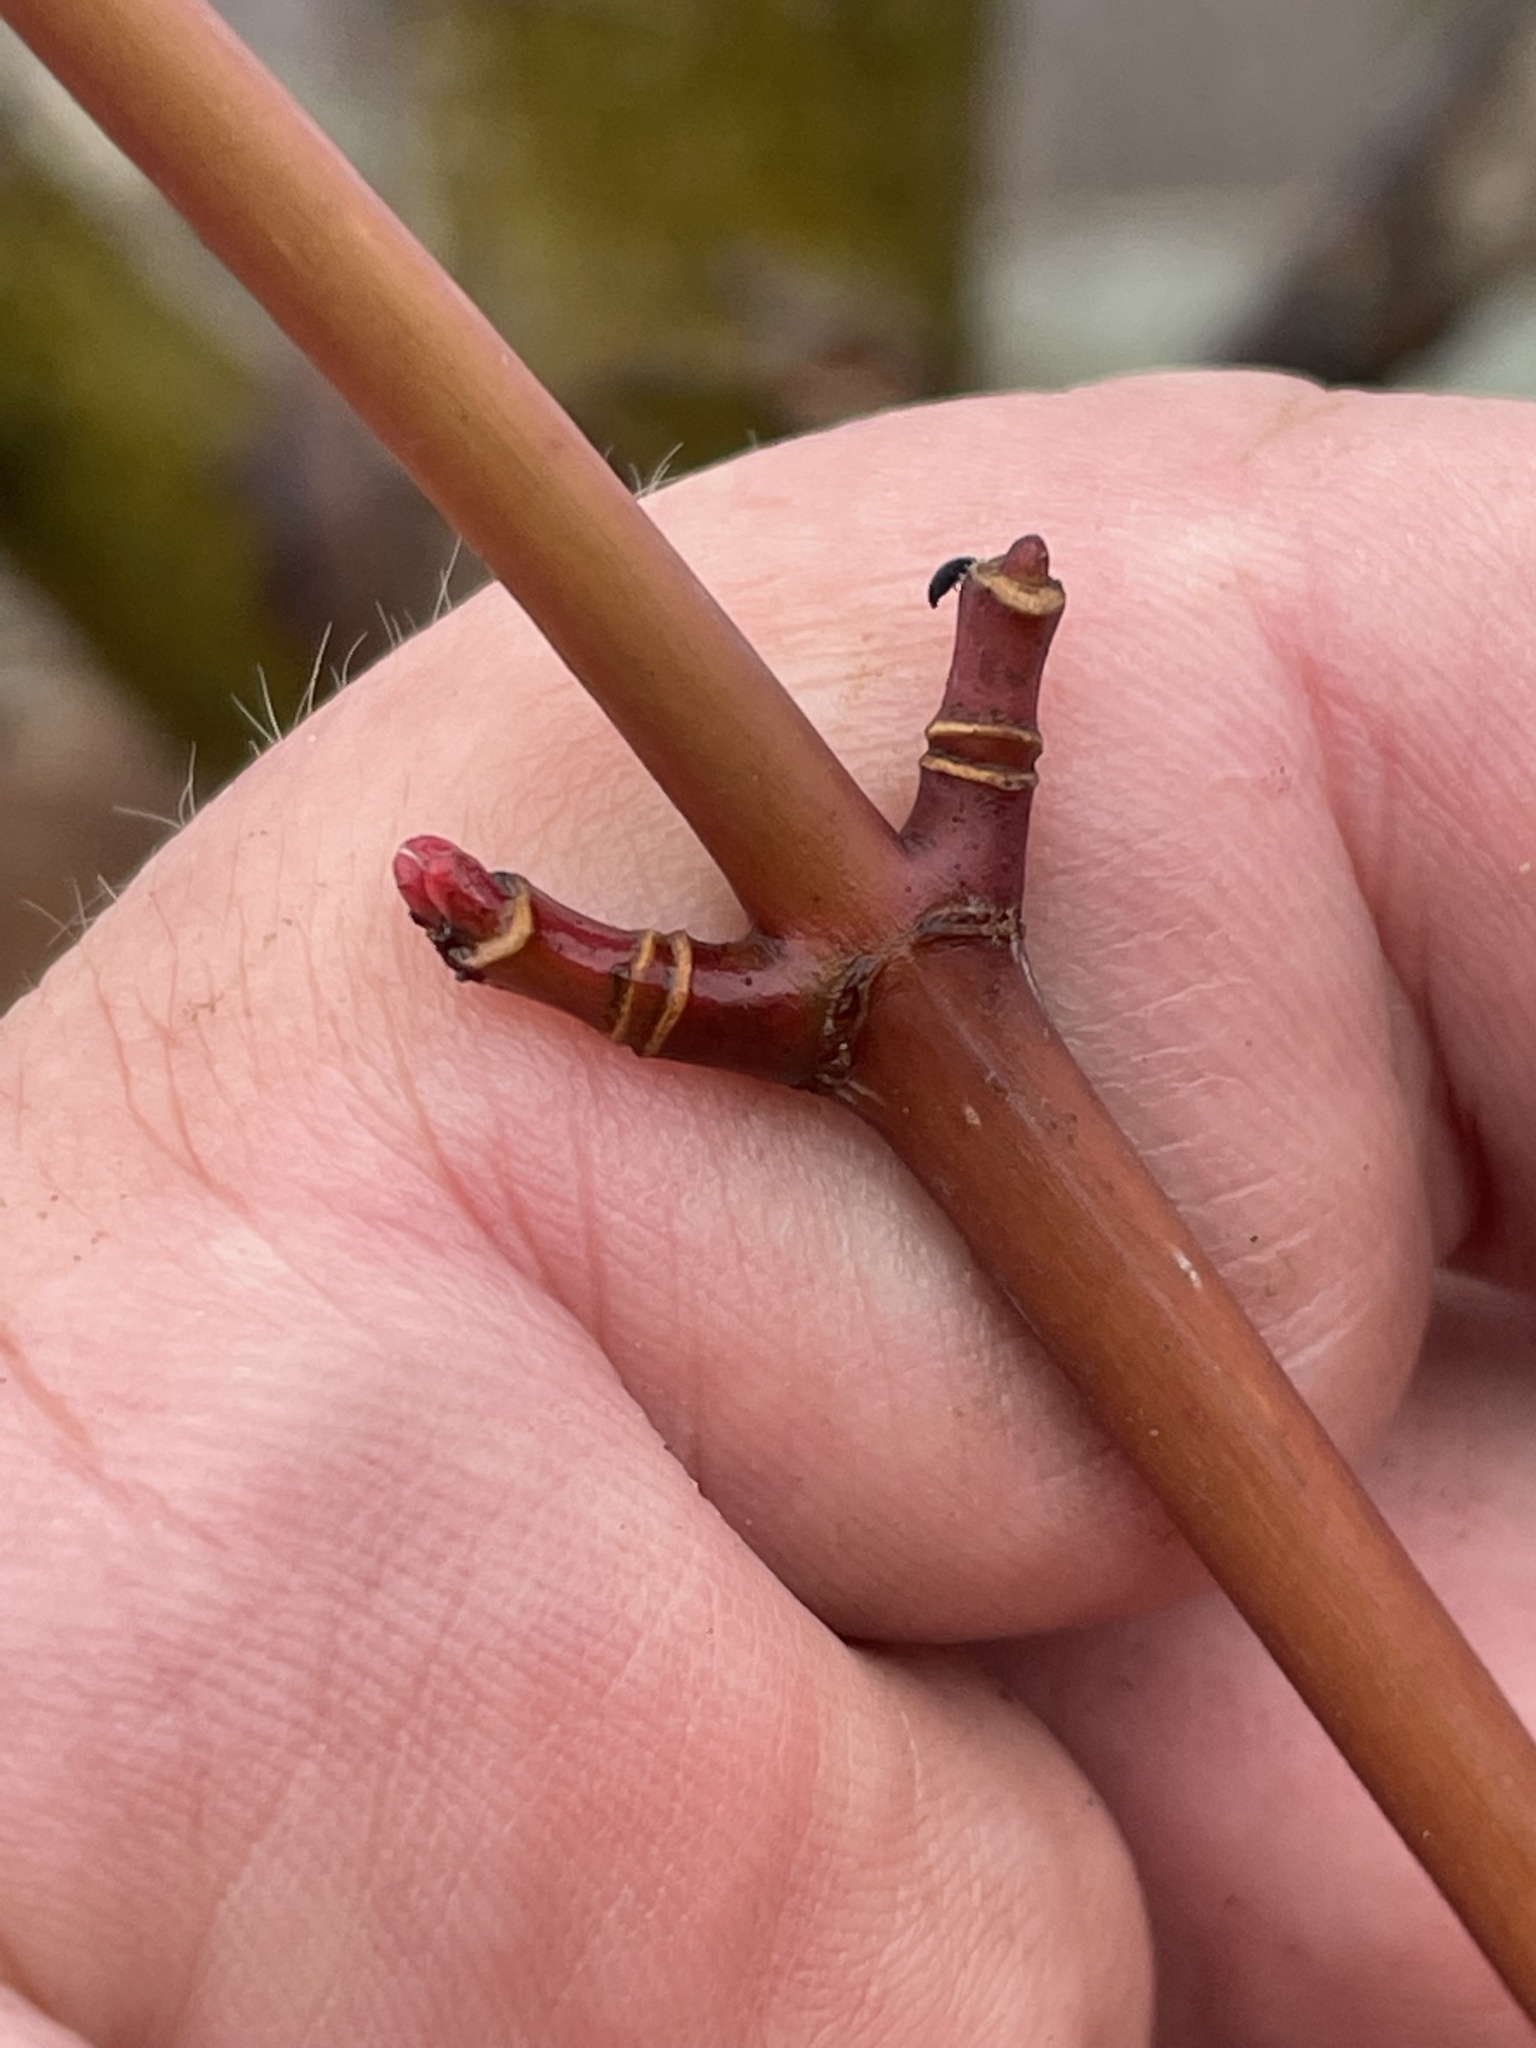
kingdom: Plantae
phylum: Tracheophyta
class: Magnoliopsida
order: Sapindales
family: Sapindaceae
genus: Acer
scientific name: Acer pensylvanicum
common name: Moosewood
